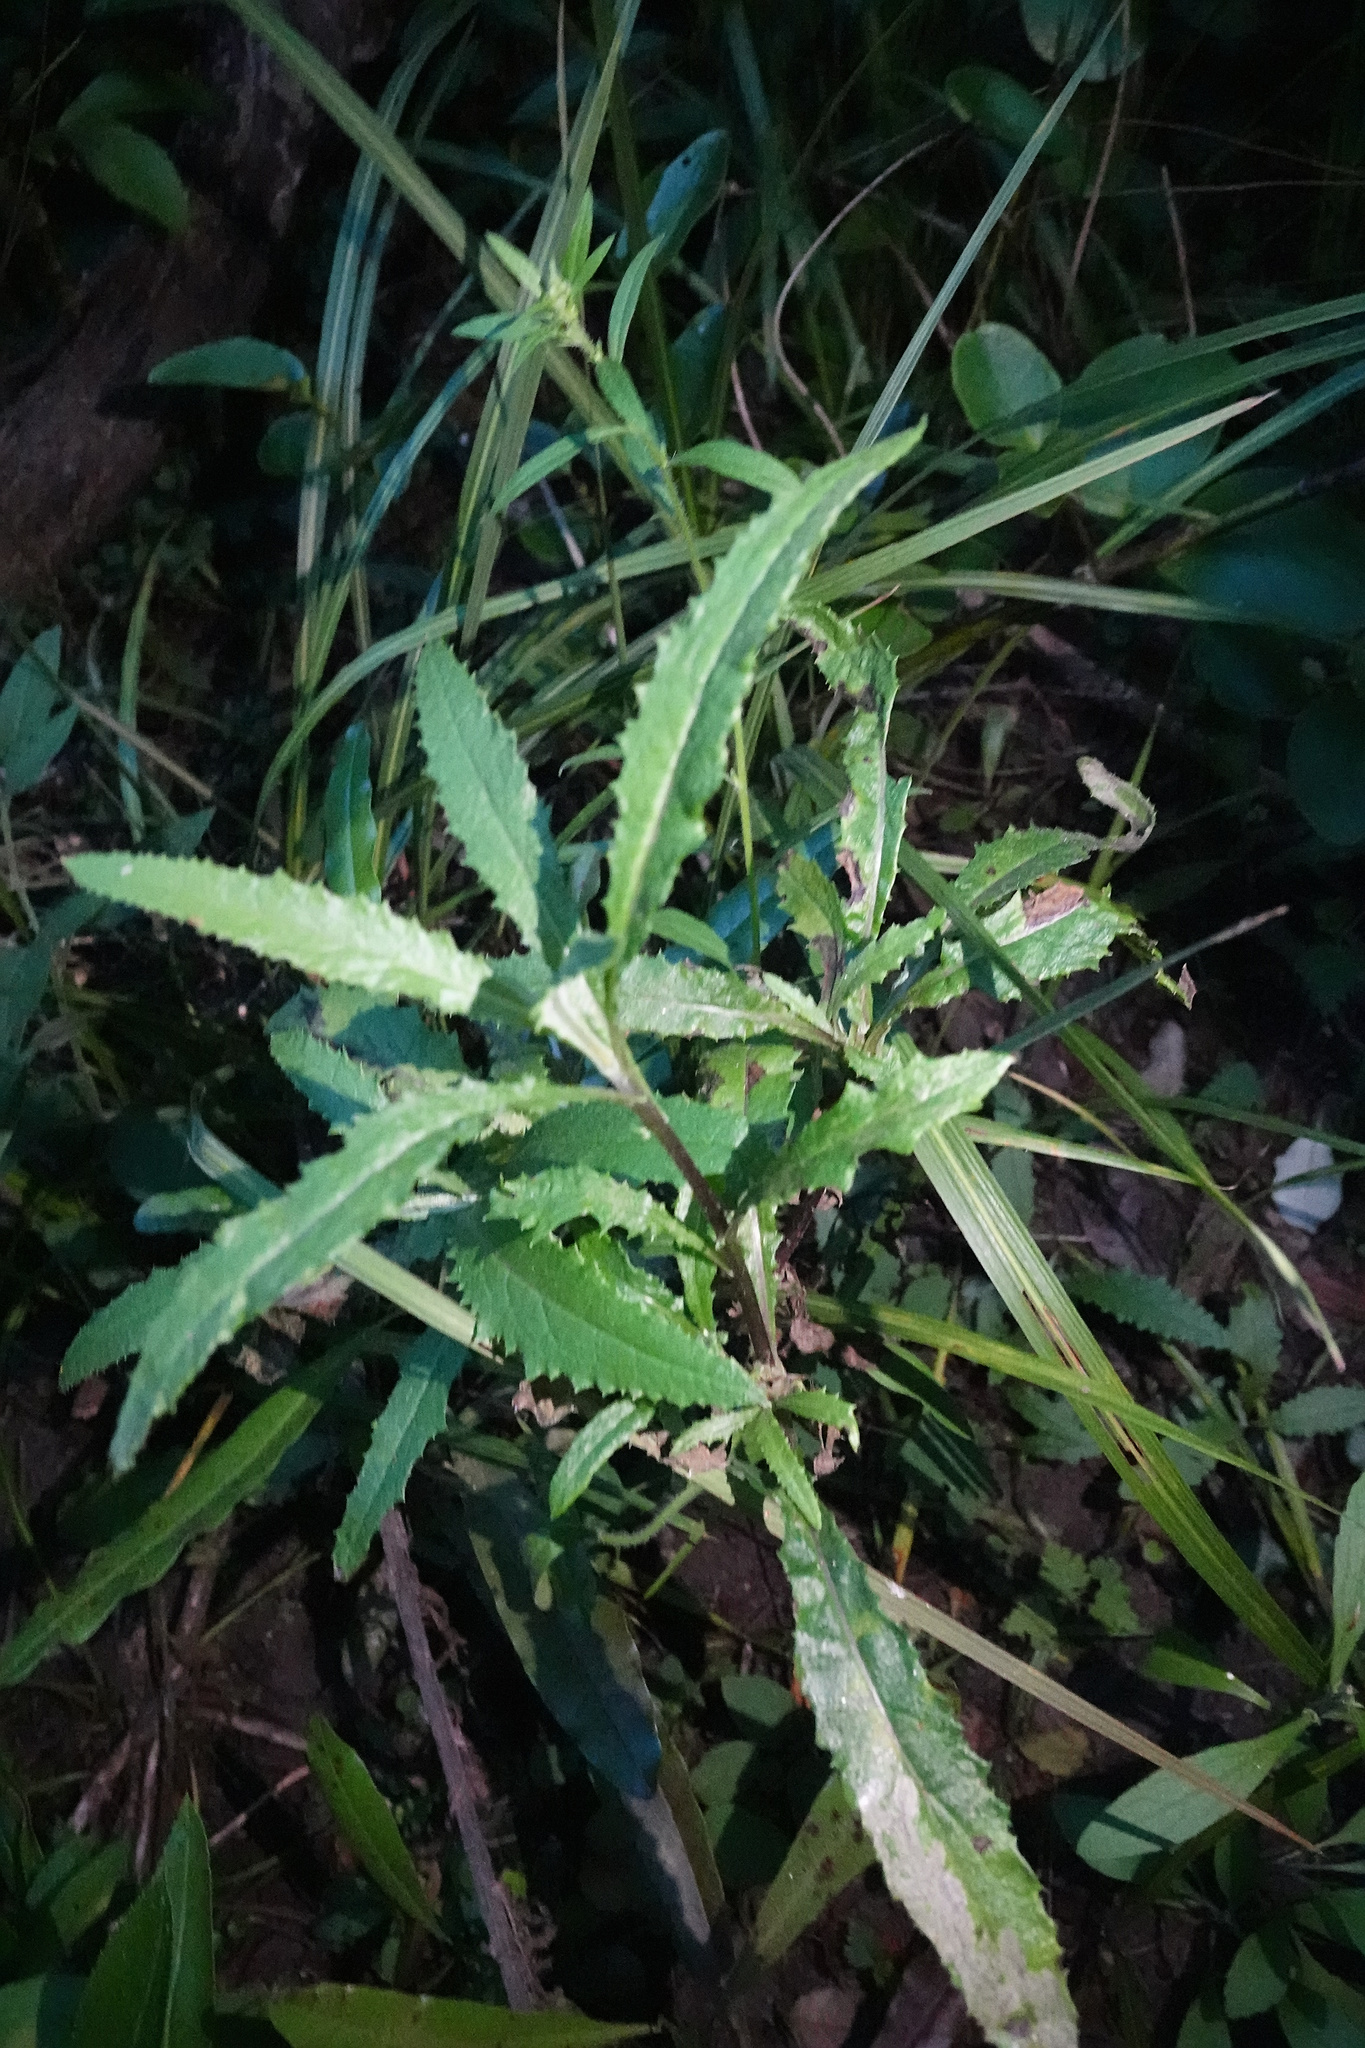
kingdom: Plantae
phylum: Tracheophyta
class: Magnoliopsida
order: Asterales
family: Asteraceae
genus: Senecio
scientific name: Senecio minimus
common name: Toothed fireweed
